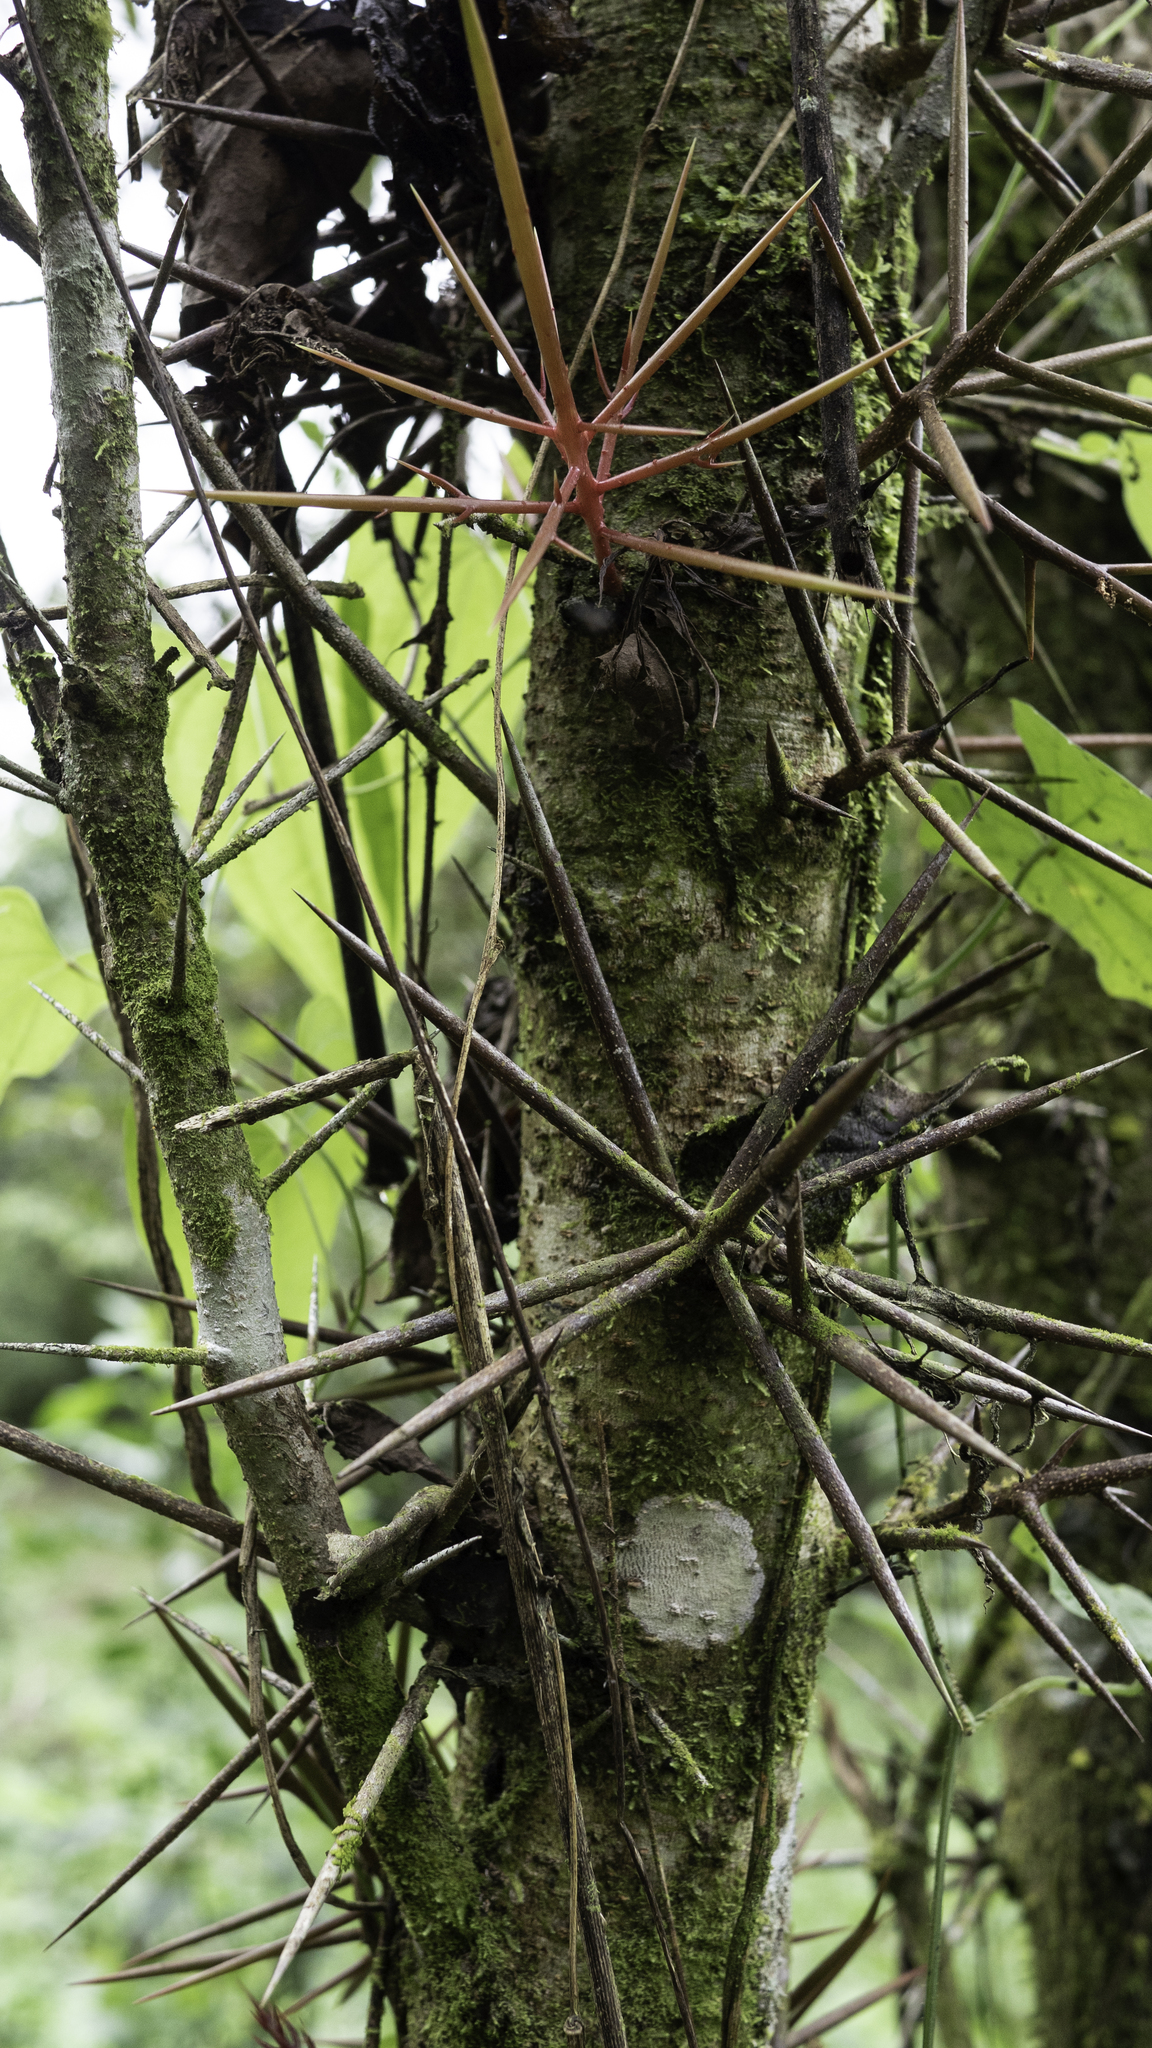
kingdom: Plantae
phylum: Tracheophyta
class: Magnoliopsida
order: Malpighiales
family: Salicaceae
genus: Xylosma
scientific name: Xylosma flexuosa
